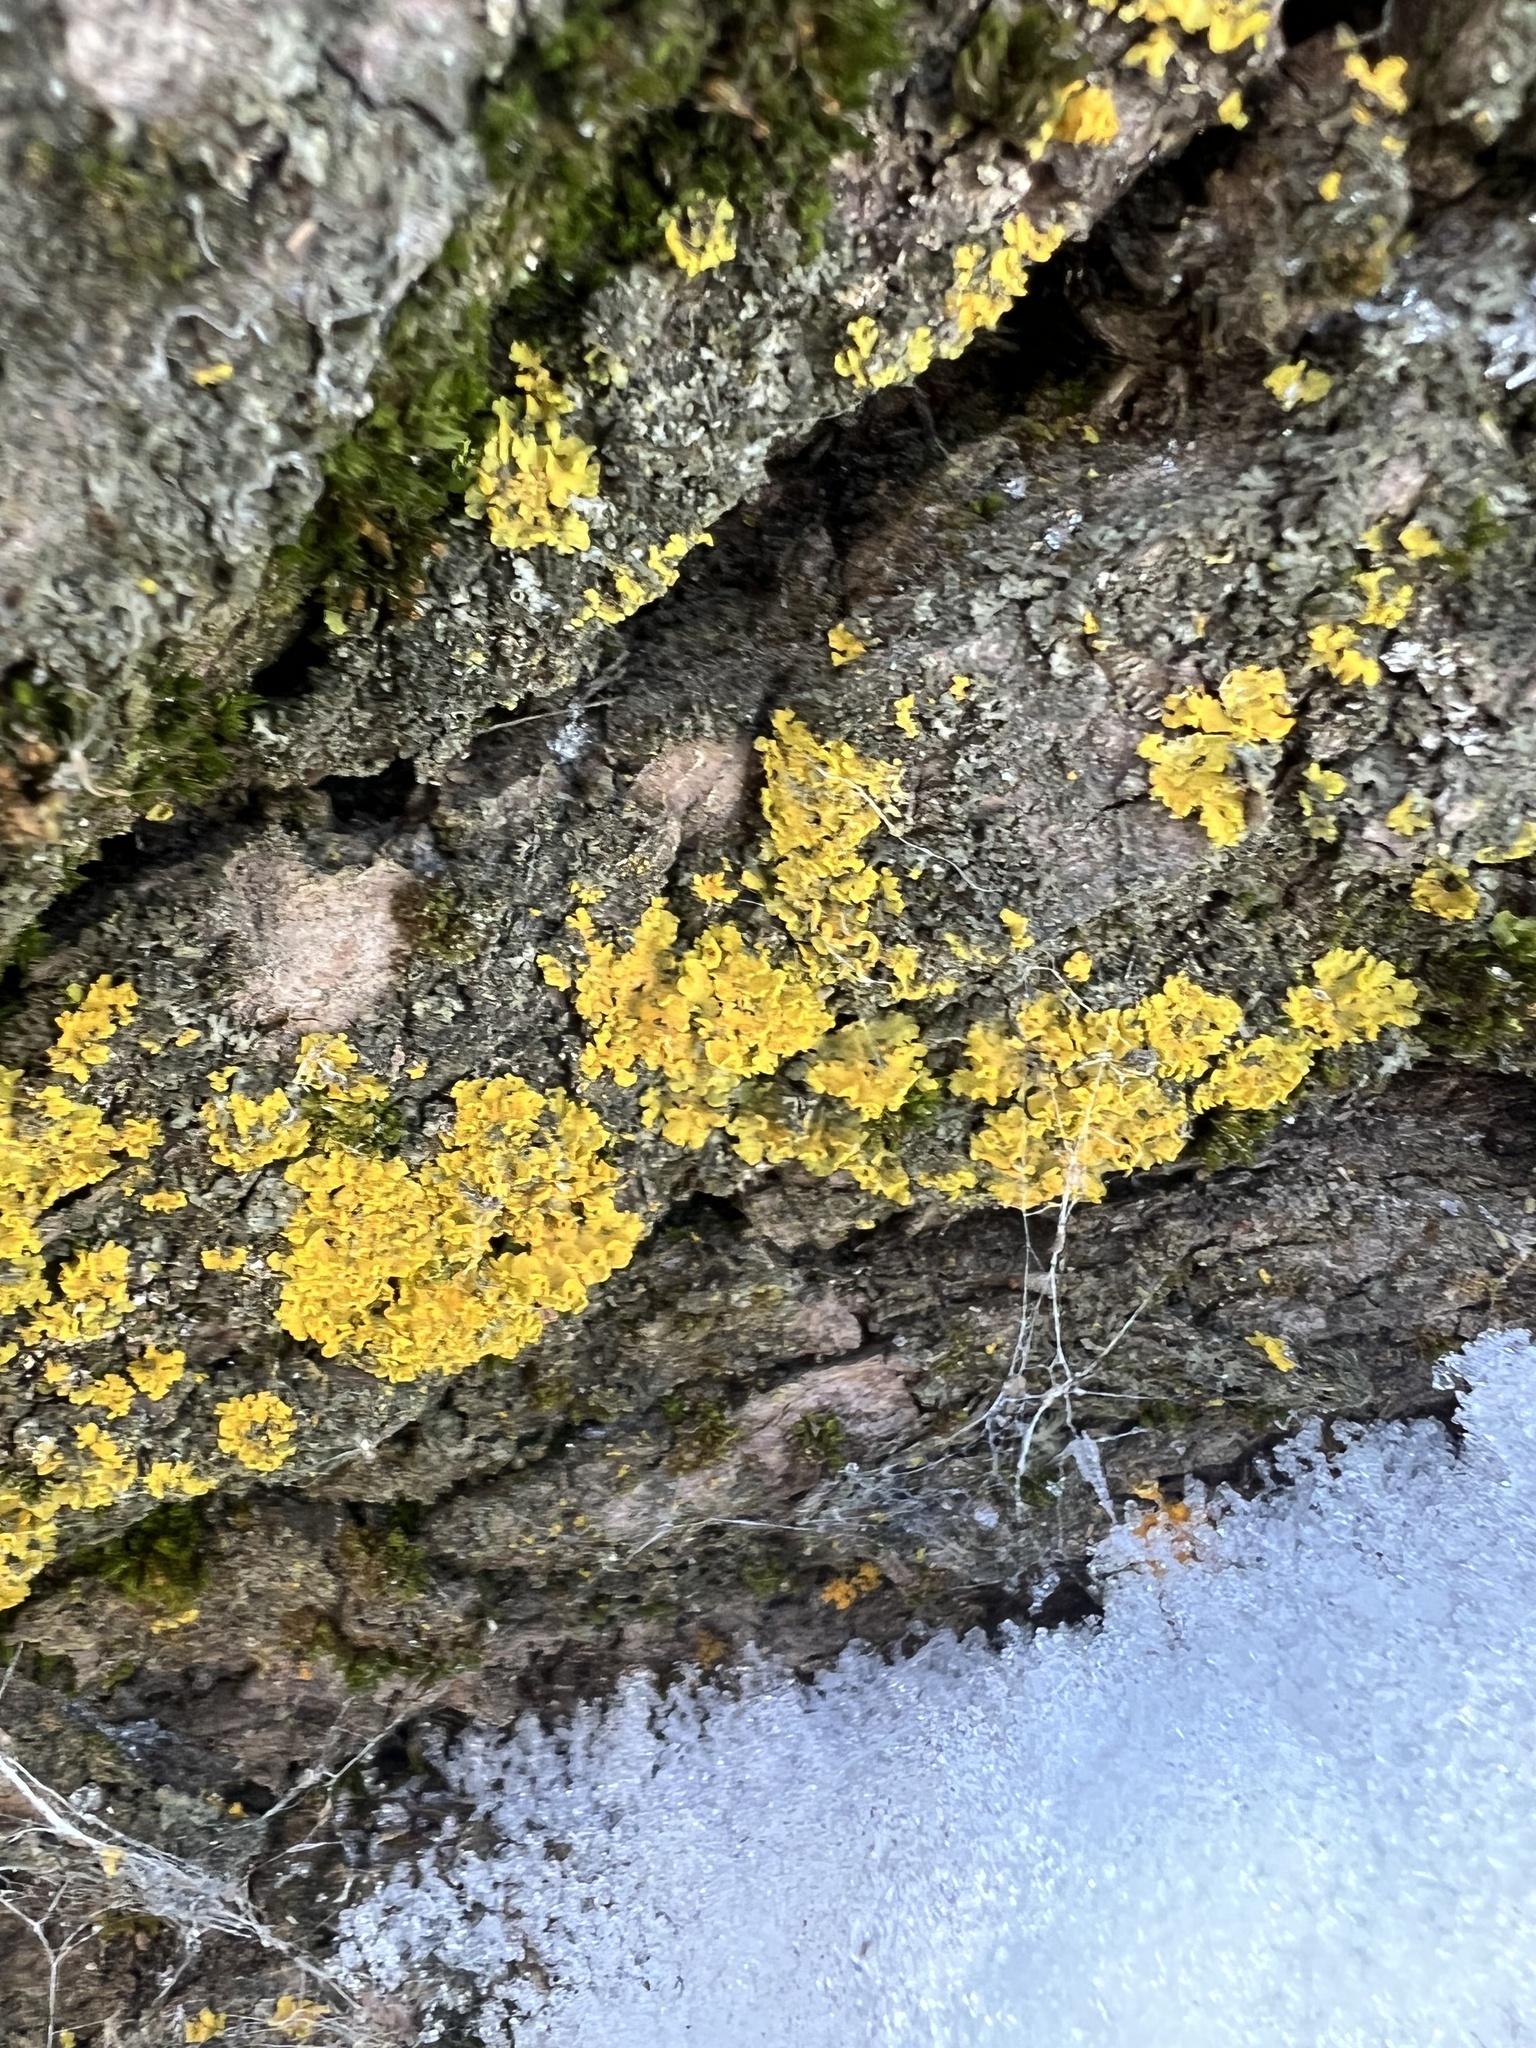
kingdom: Fungi
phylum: Ascomycota
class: Lecanoromycetes
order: Teloschistales
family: Teloschistaceae
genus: Oxneria
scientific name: Oxneria fallax
